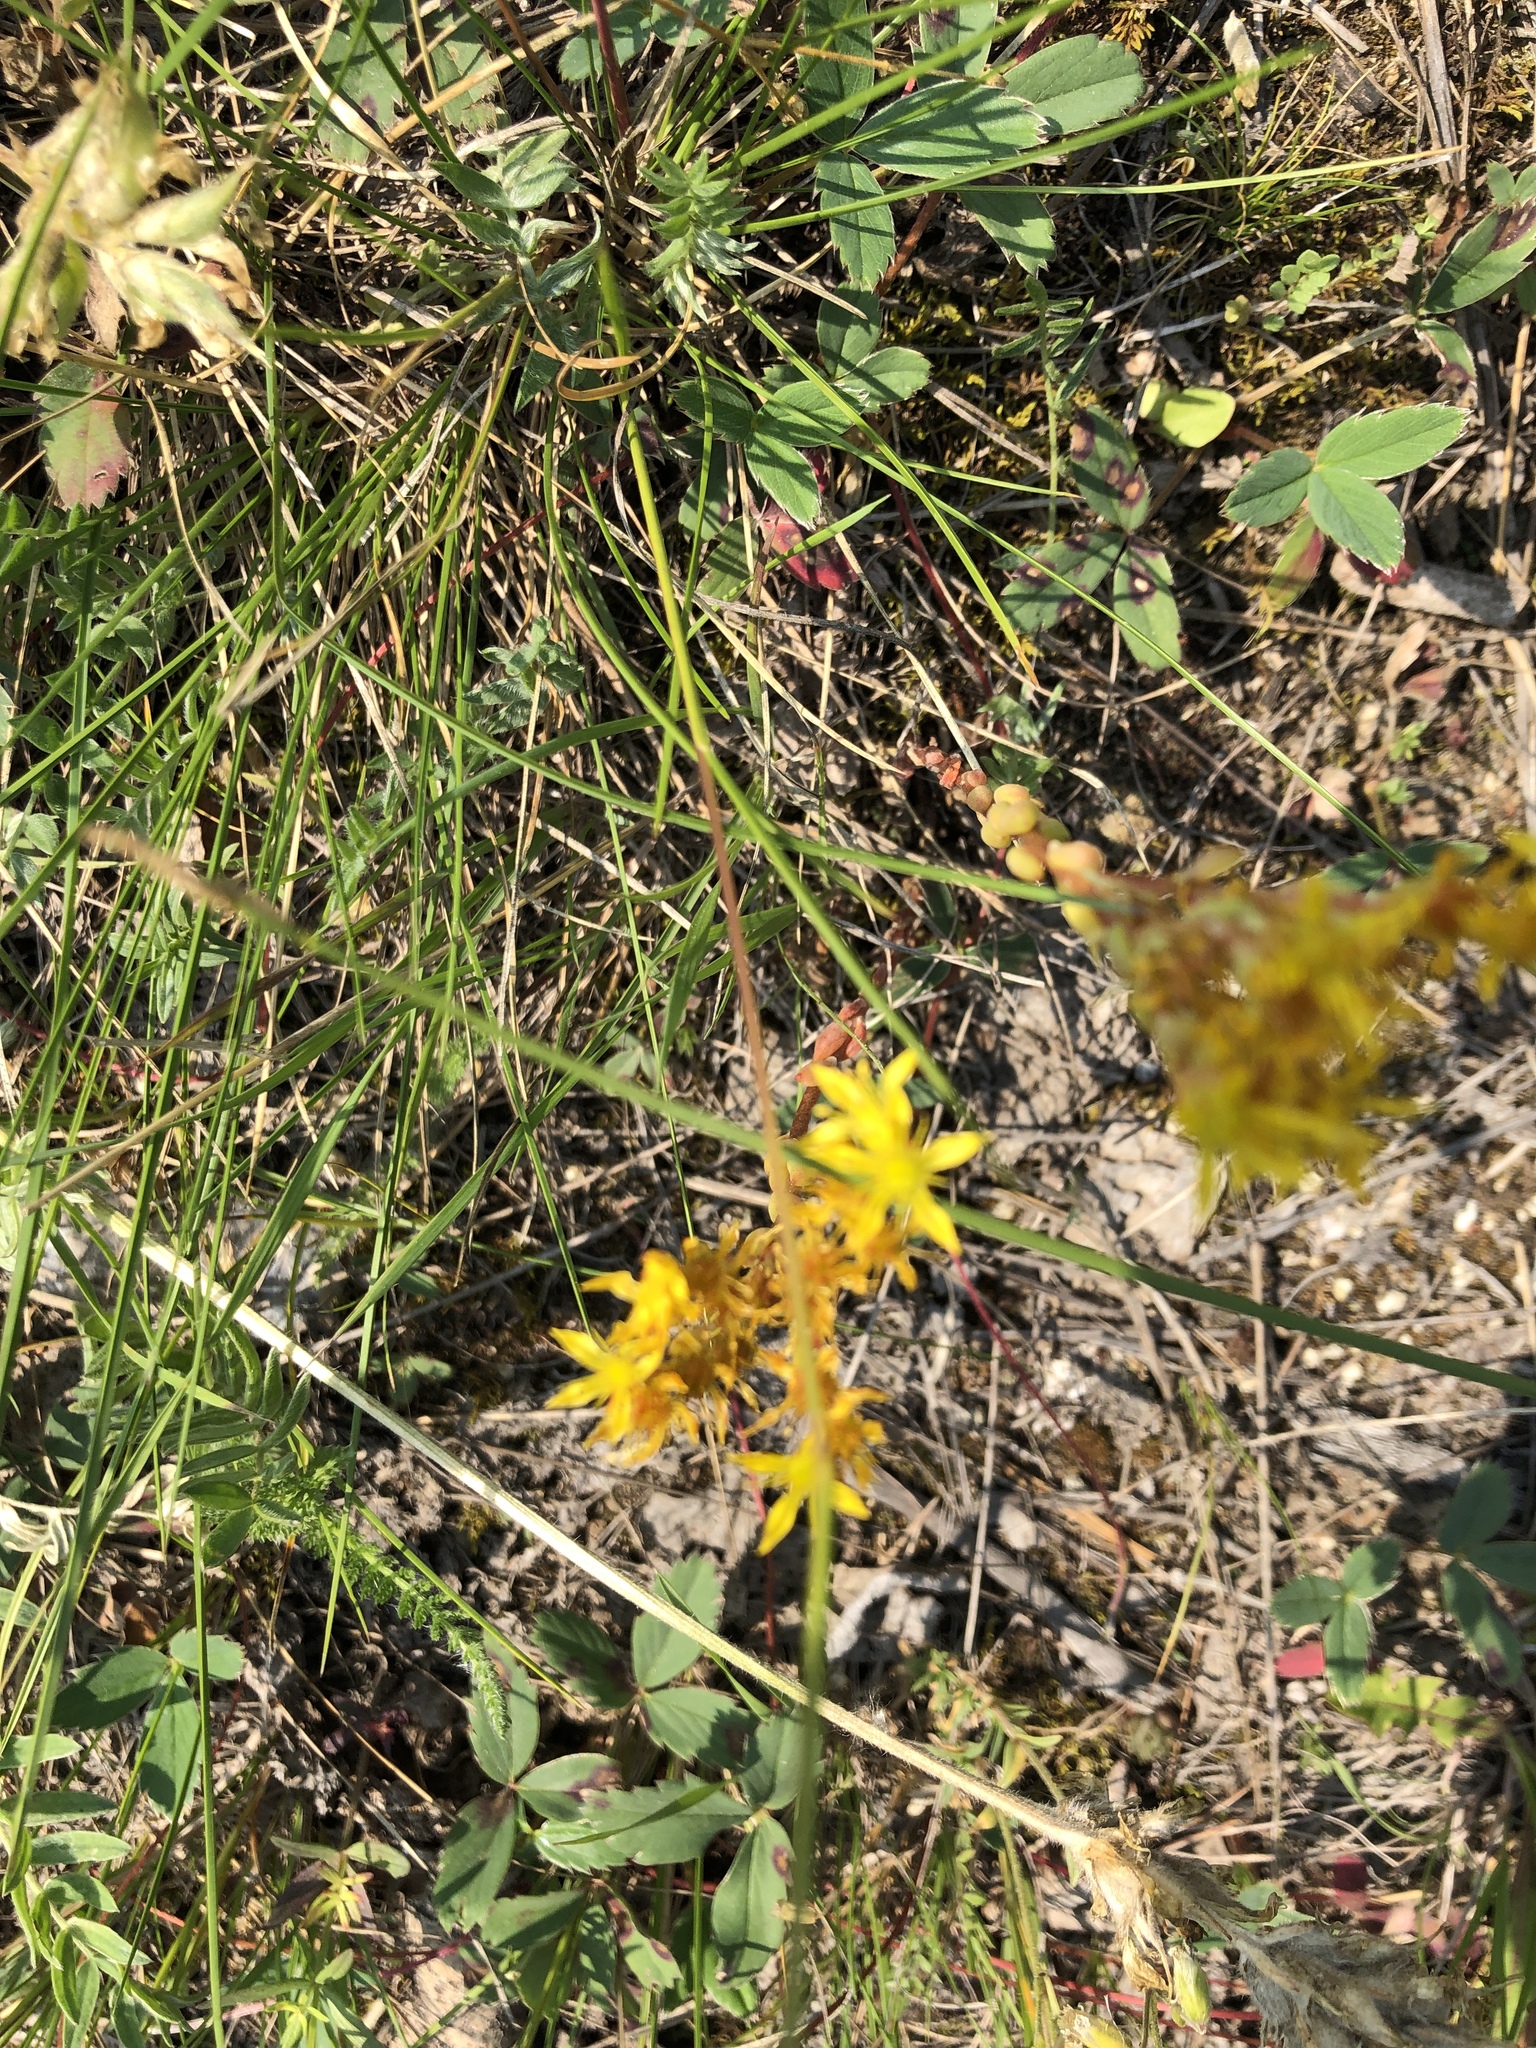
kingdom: Plantae
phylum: Tracheophyta
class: Magnoliopsida
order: Saxifragales
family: Crassulaceae
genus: Sedum
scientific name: Sedum lanceolatum
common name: Common stonecrop
